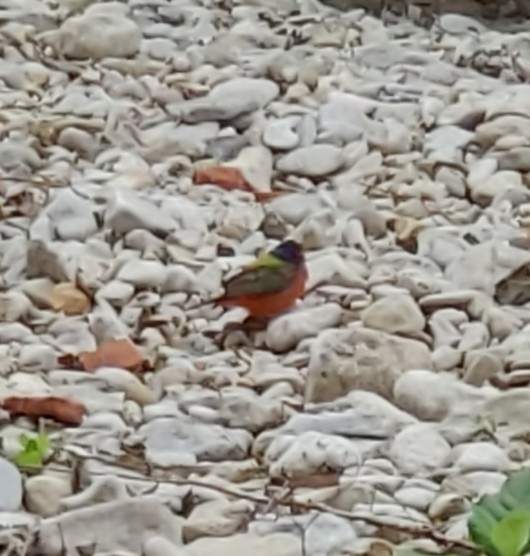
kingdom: Animalia
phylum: Chordata
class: Aves
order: Passeriformes
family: Cardinalidae
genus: Passerina
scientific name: Passerina ciris
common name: Painted bunting
